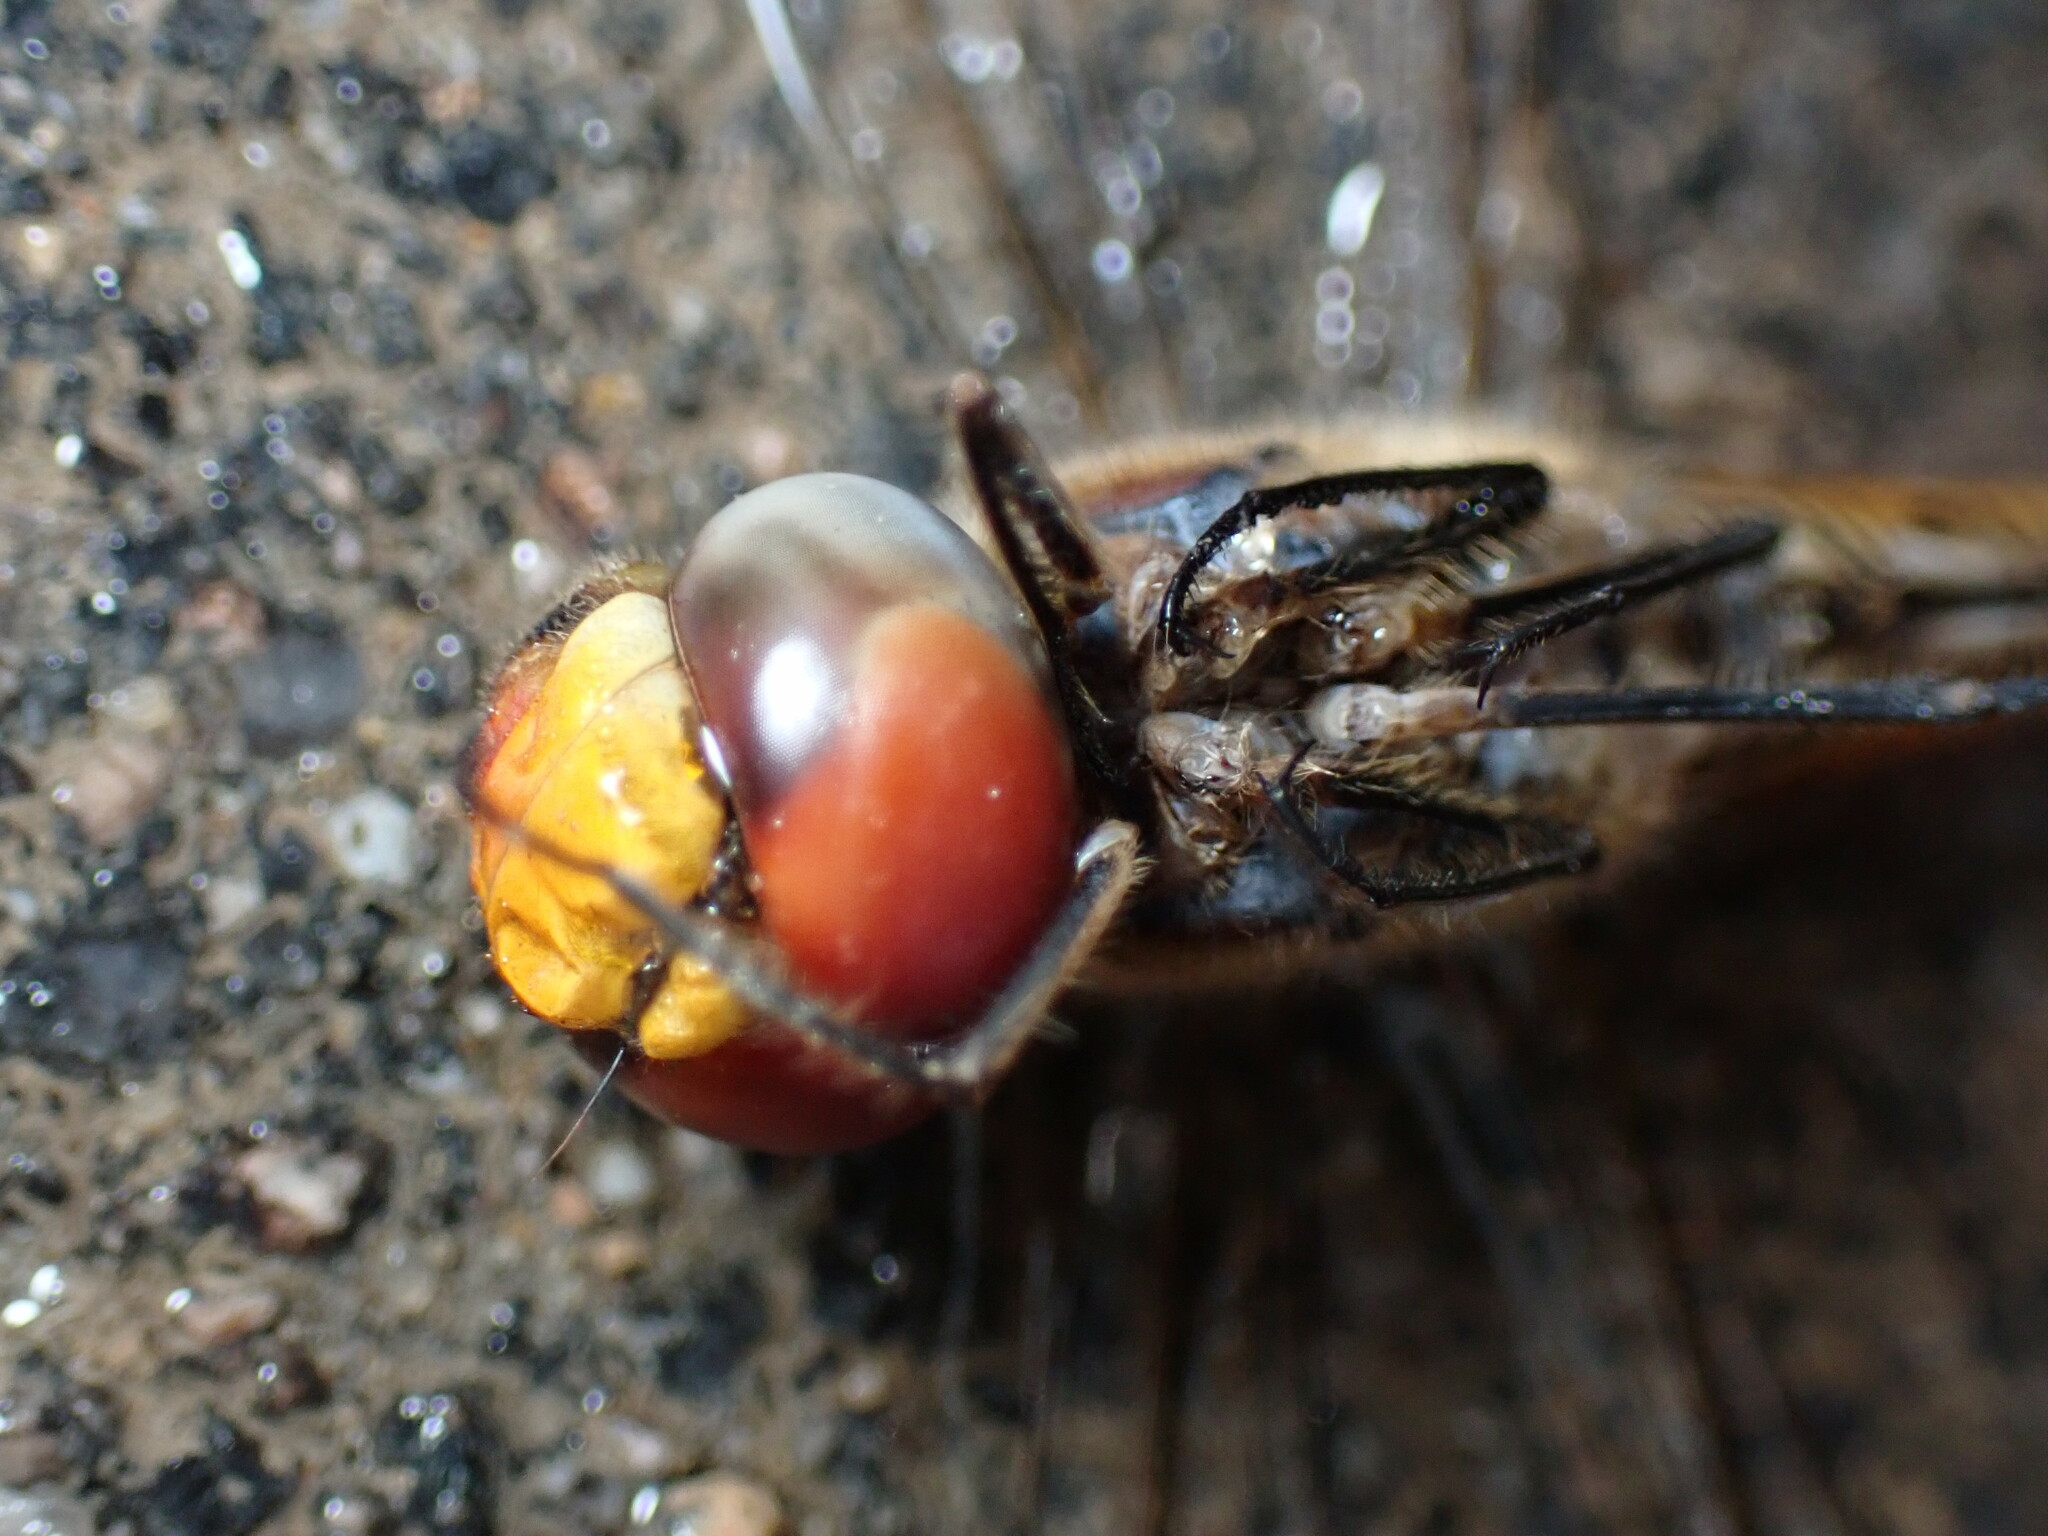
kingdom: Animalia
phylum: Arthropoda
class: Insecta
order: Odonata
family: Libellulidae
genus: Pantala
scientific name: Pantala flavescens
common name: Wandering glider
